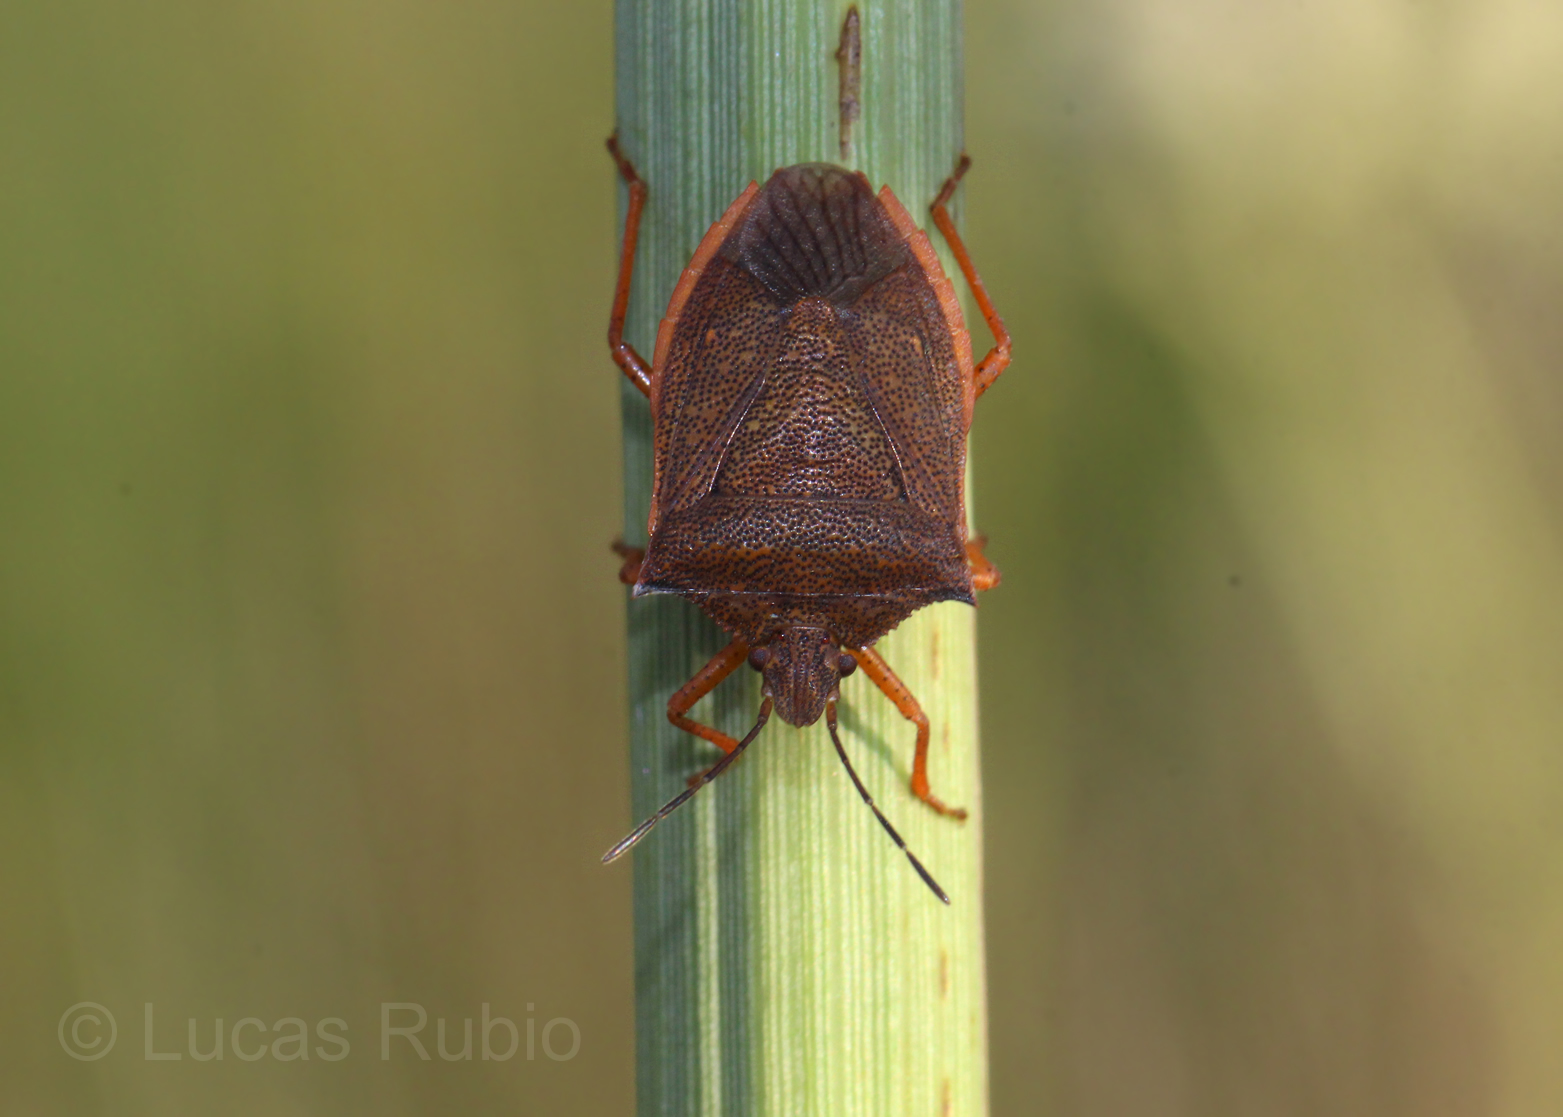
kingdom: Animalia
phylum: Arthropoda
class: Insecta
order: Hemiptera
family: Pentatomidae
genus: Euschistus
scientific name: Euschistus
